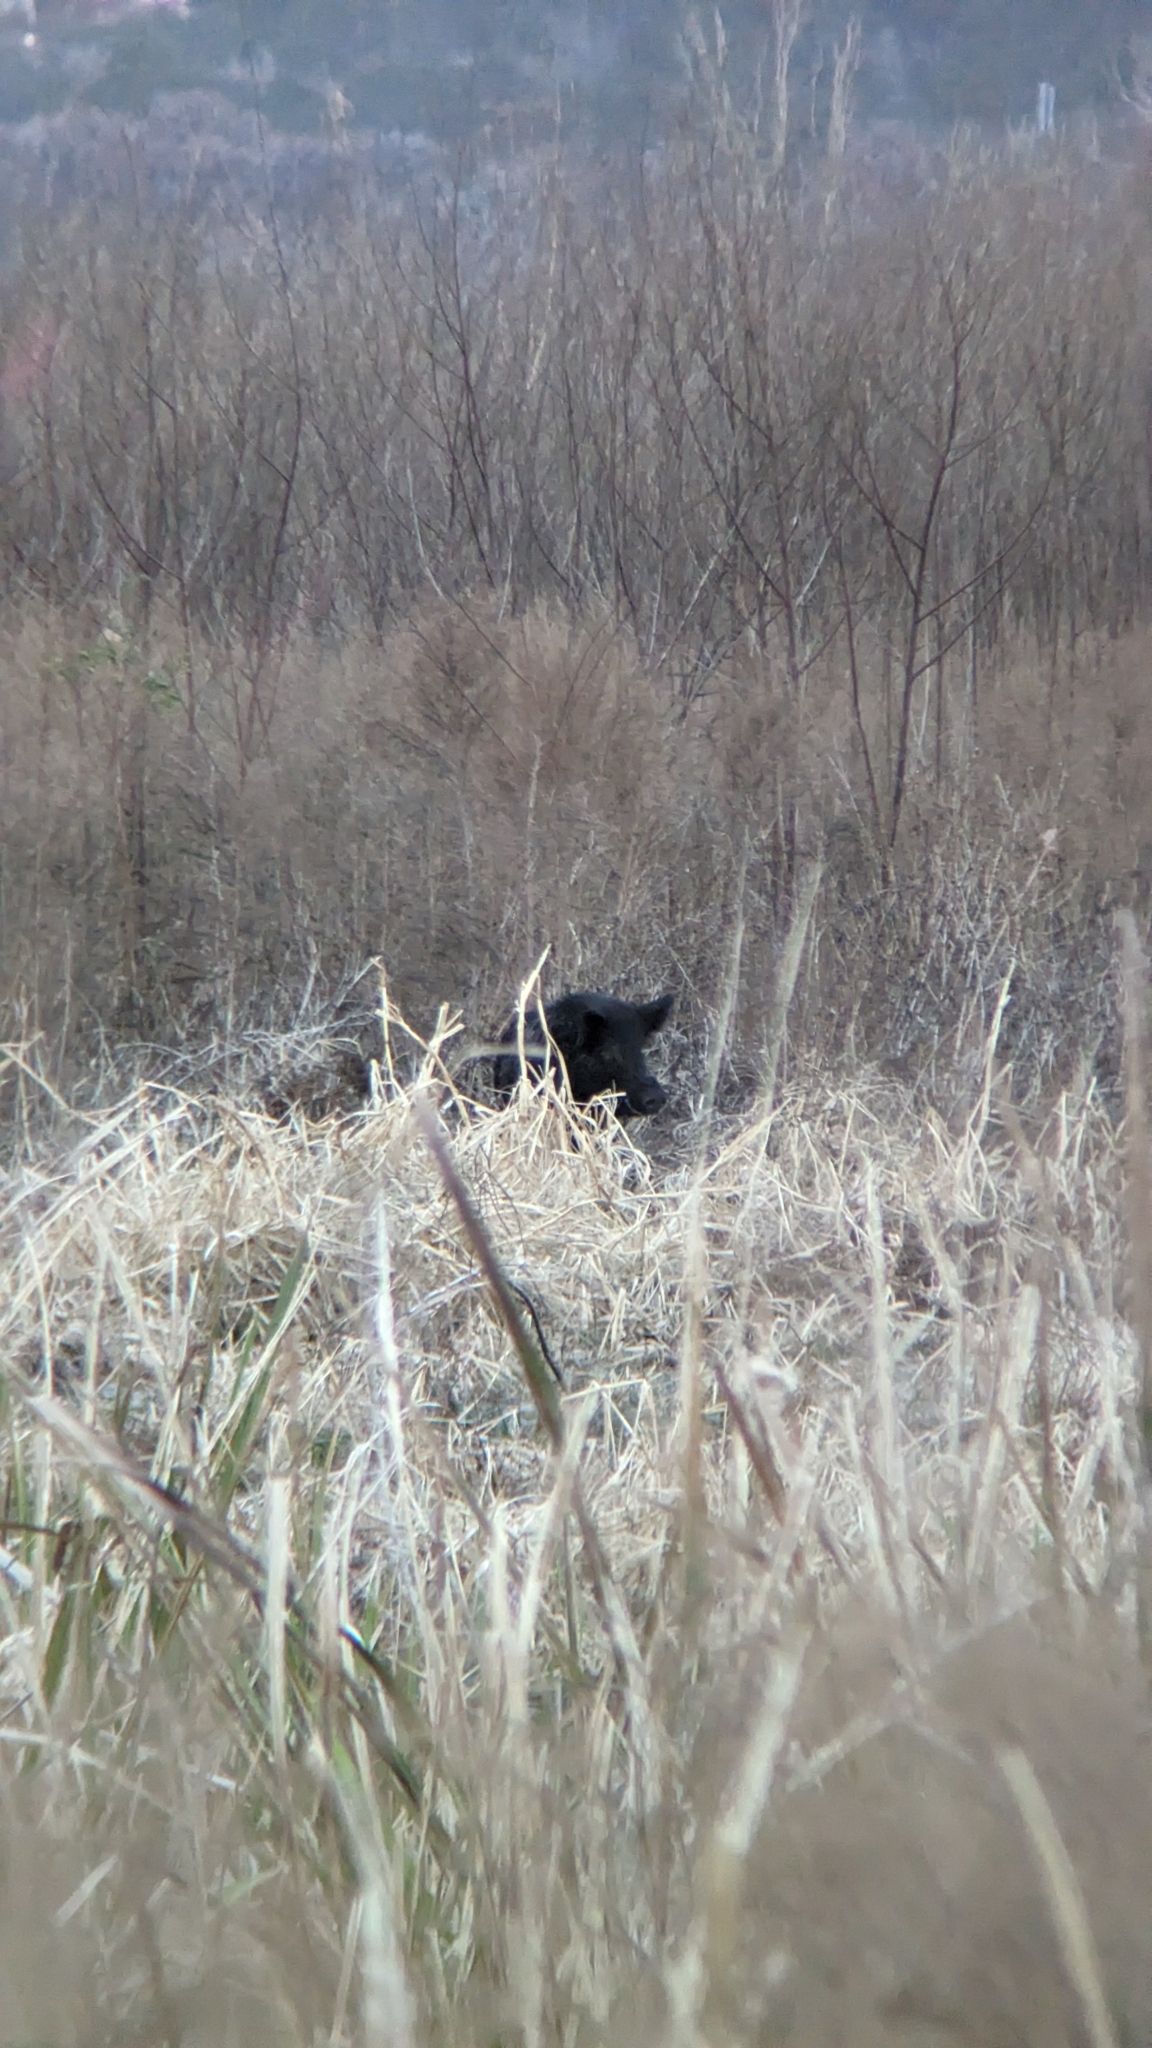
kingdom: Animalia
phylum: Chordata
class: Mammalia
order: Artiodactyla
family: Suidae
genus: Sus
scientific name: Sus scrofa
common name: Wild boar
